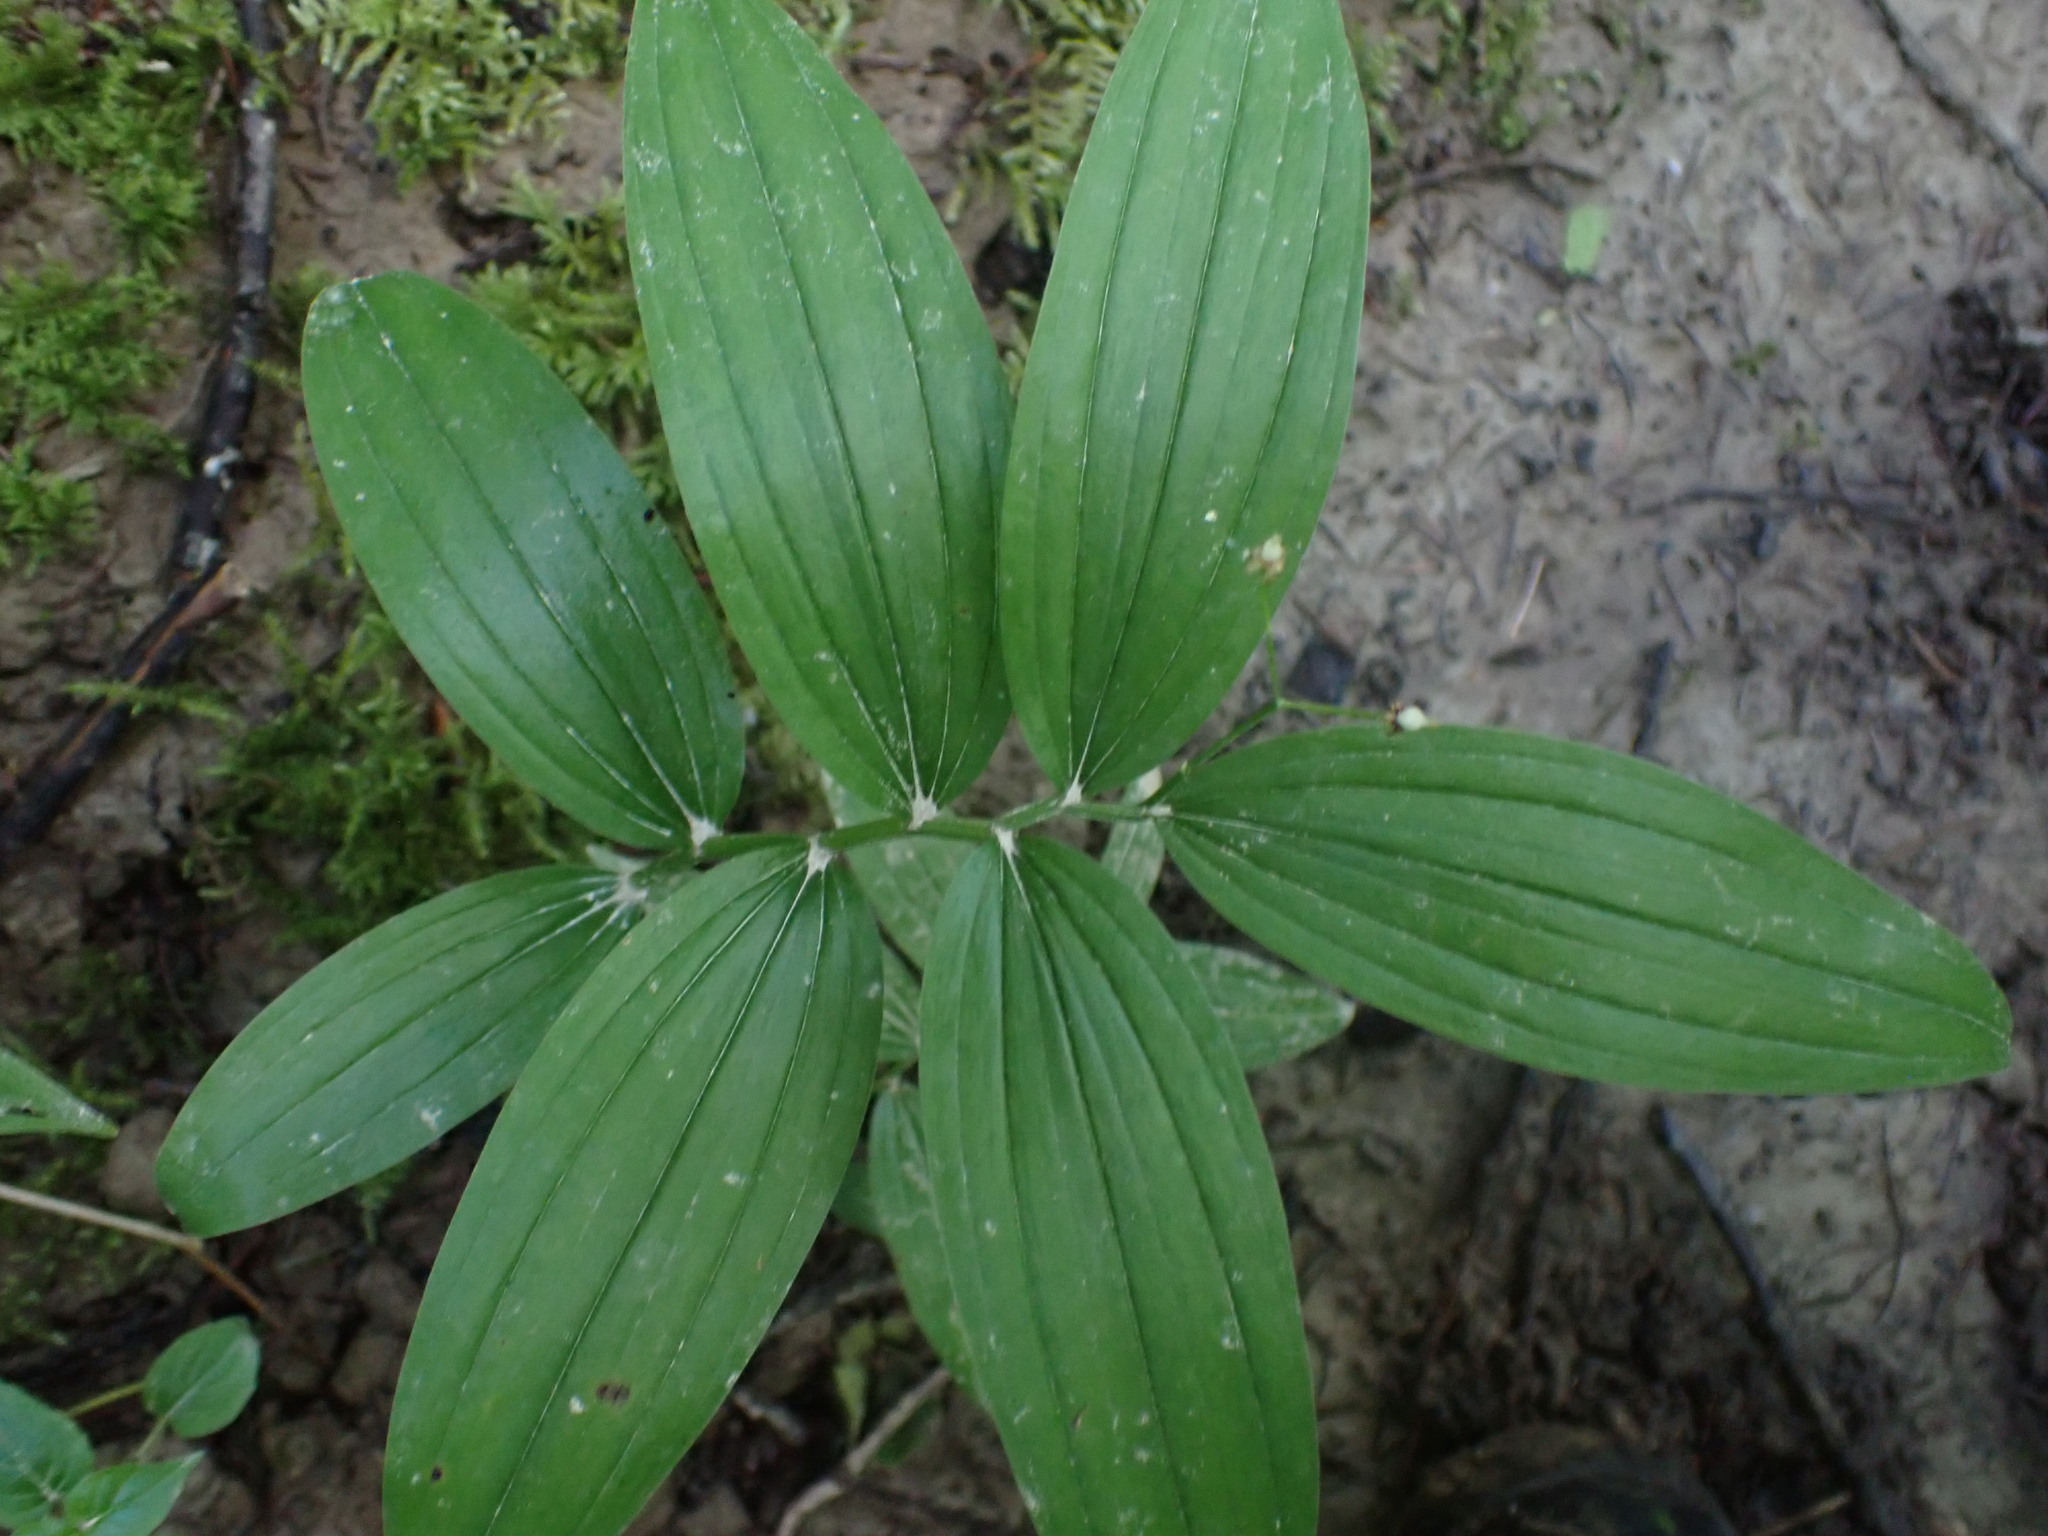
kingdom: Plantae
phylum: Tracheophyta
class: Liliopsida
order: Asparagales
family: Asparagaceae
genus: Maianthemum
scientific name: Maianthemum stellatum
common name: Little false solomon's seal
